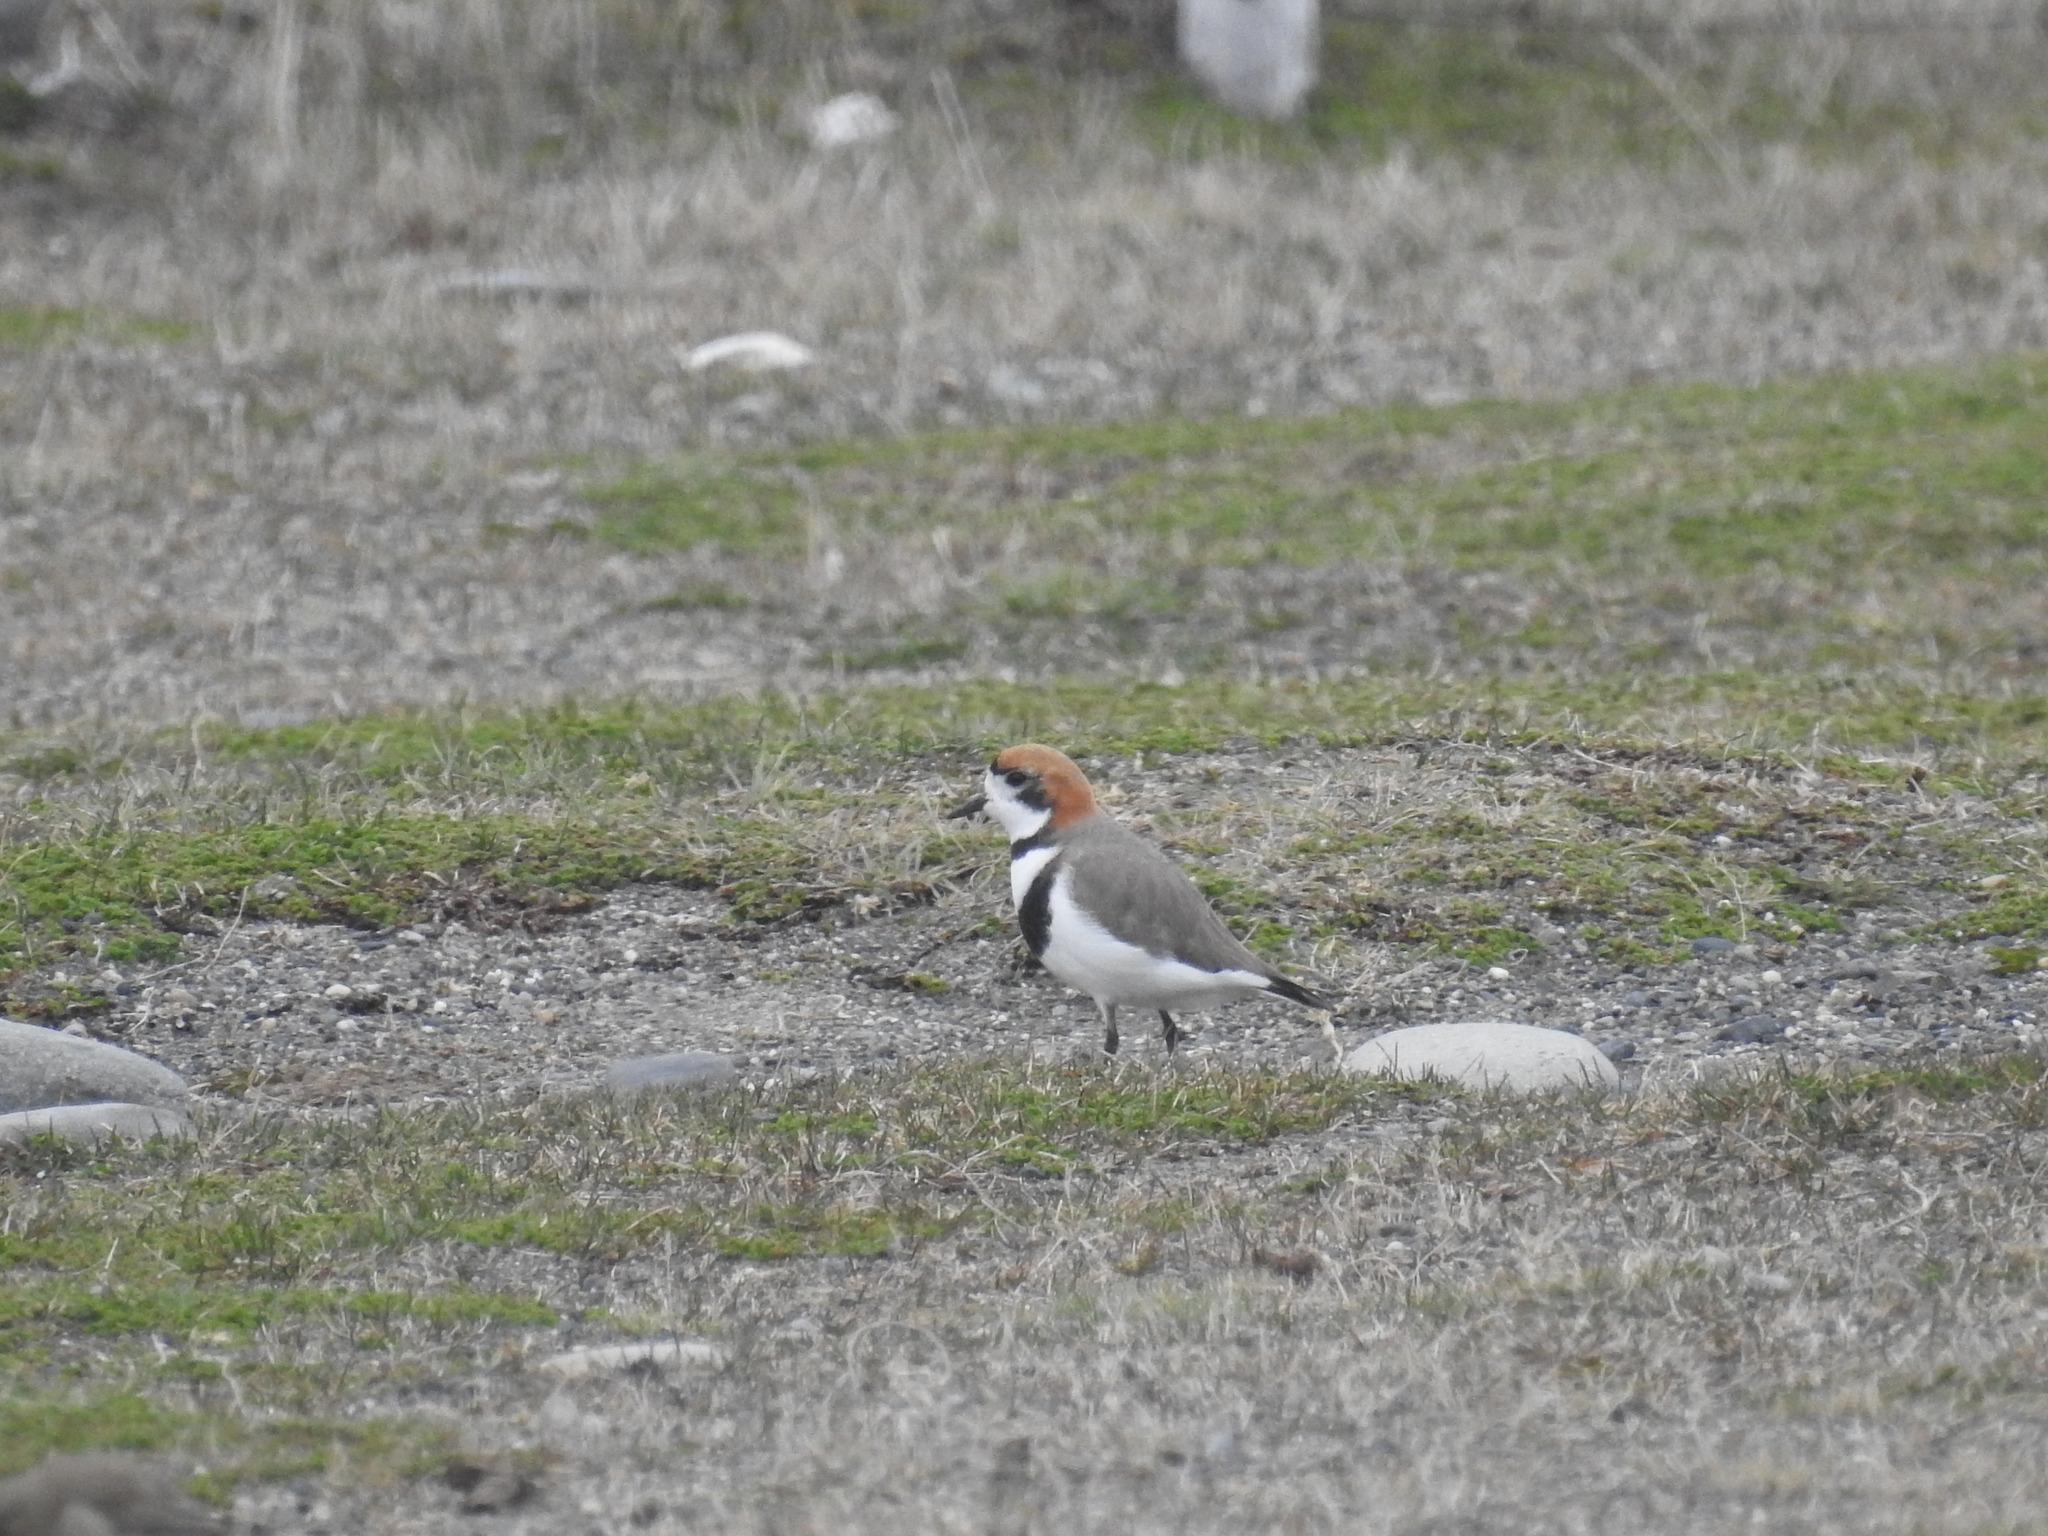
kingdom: Animalia
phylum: Chordata
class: Aves
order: Charadriiformes
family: Charadriidae
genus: Anarhynchus
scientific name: Anarhynchus
